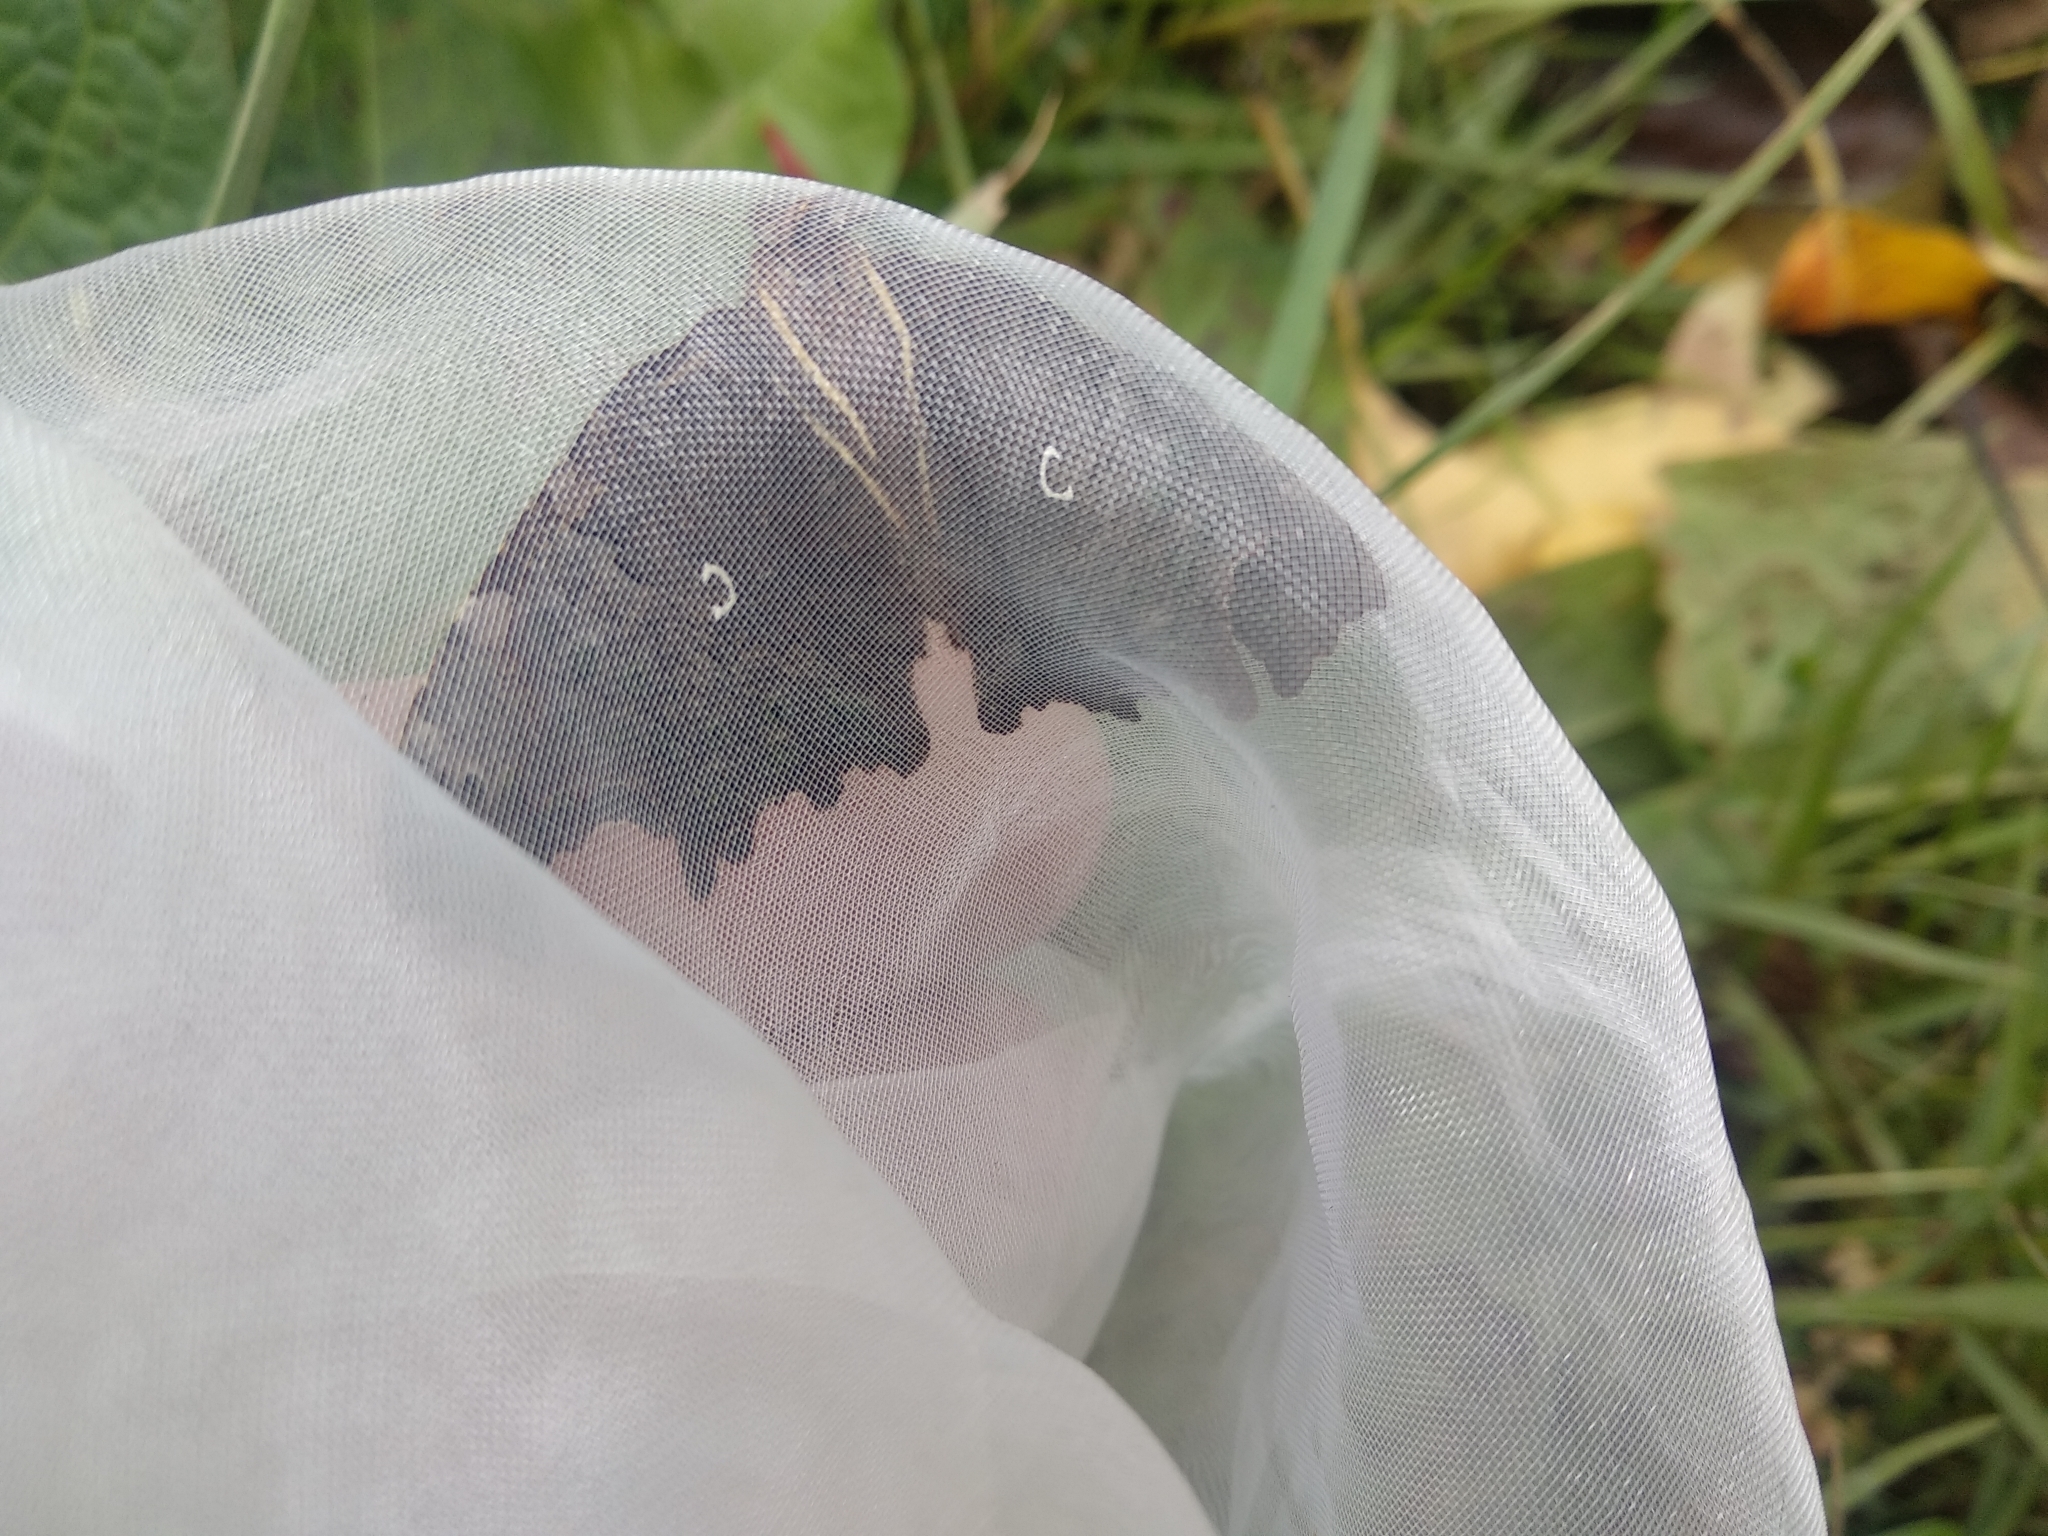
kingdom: Animalia
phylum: Arthropoda
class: Insecta
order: Lepidoptera
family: Nymphalidae
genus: Polygonia
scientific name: Polygonia c-album
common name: Comma
